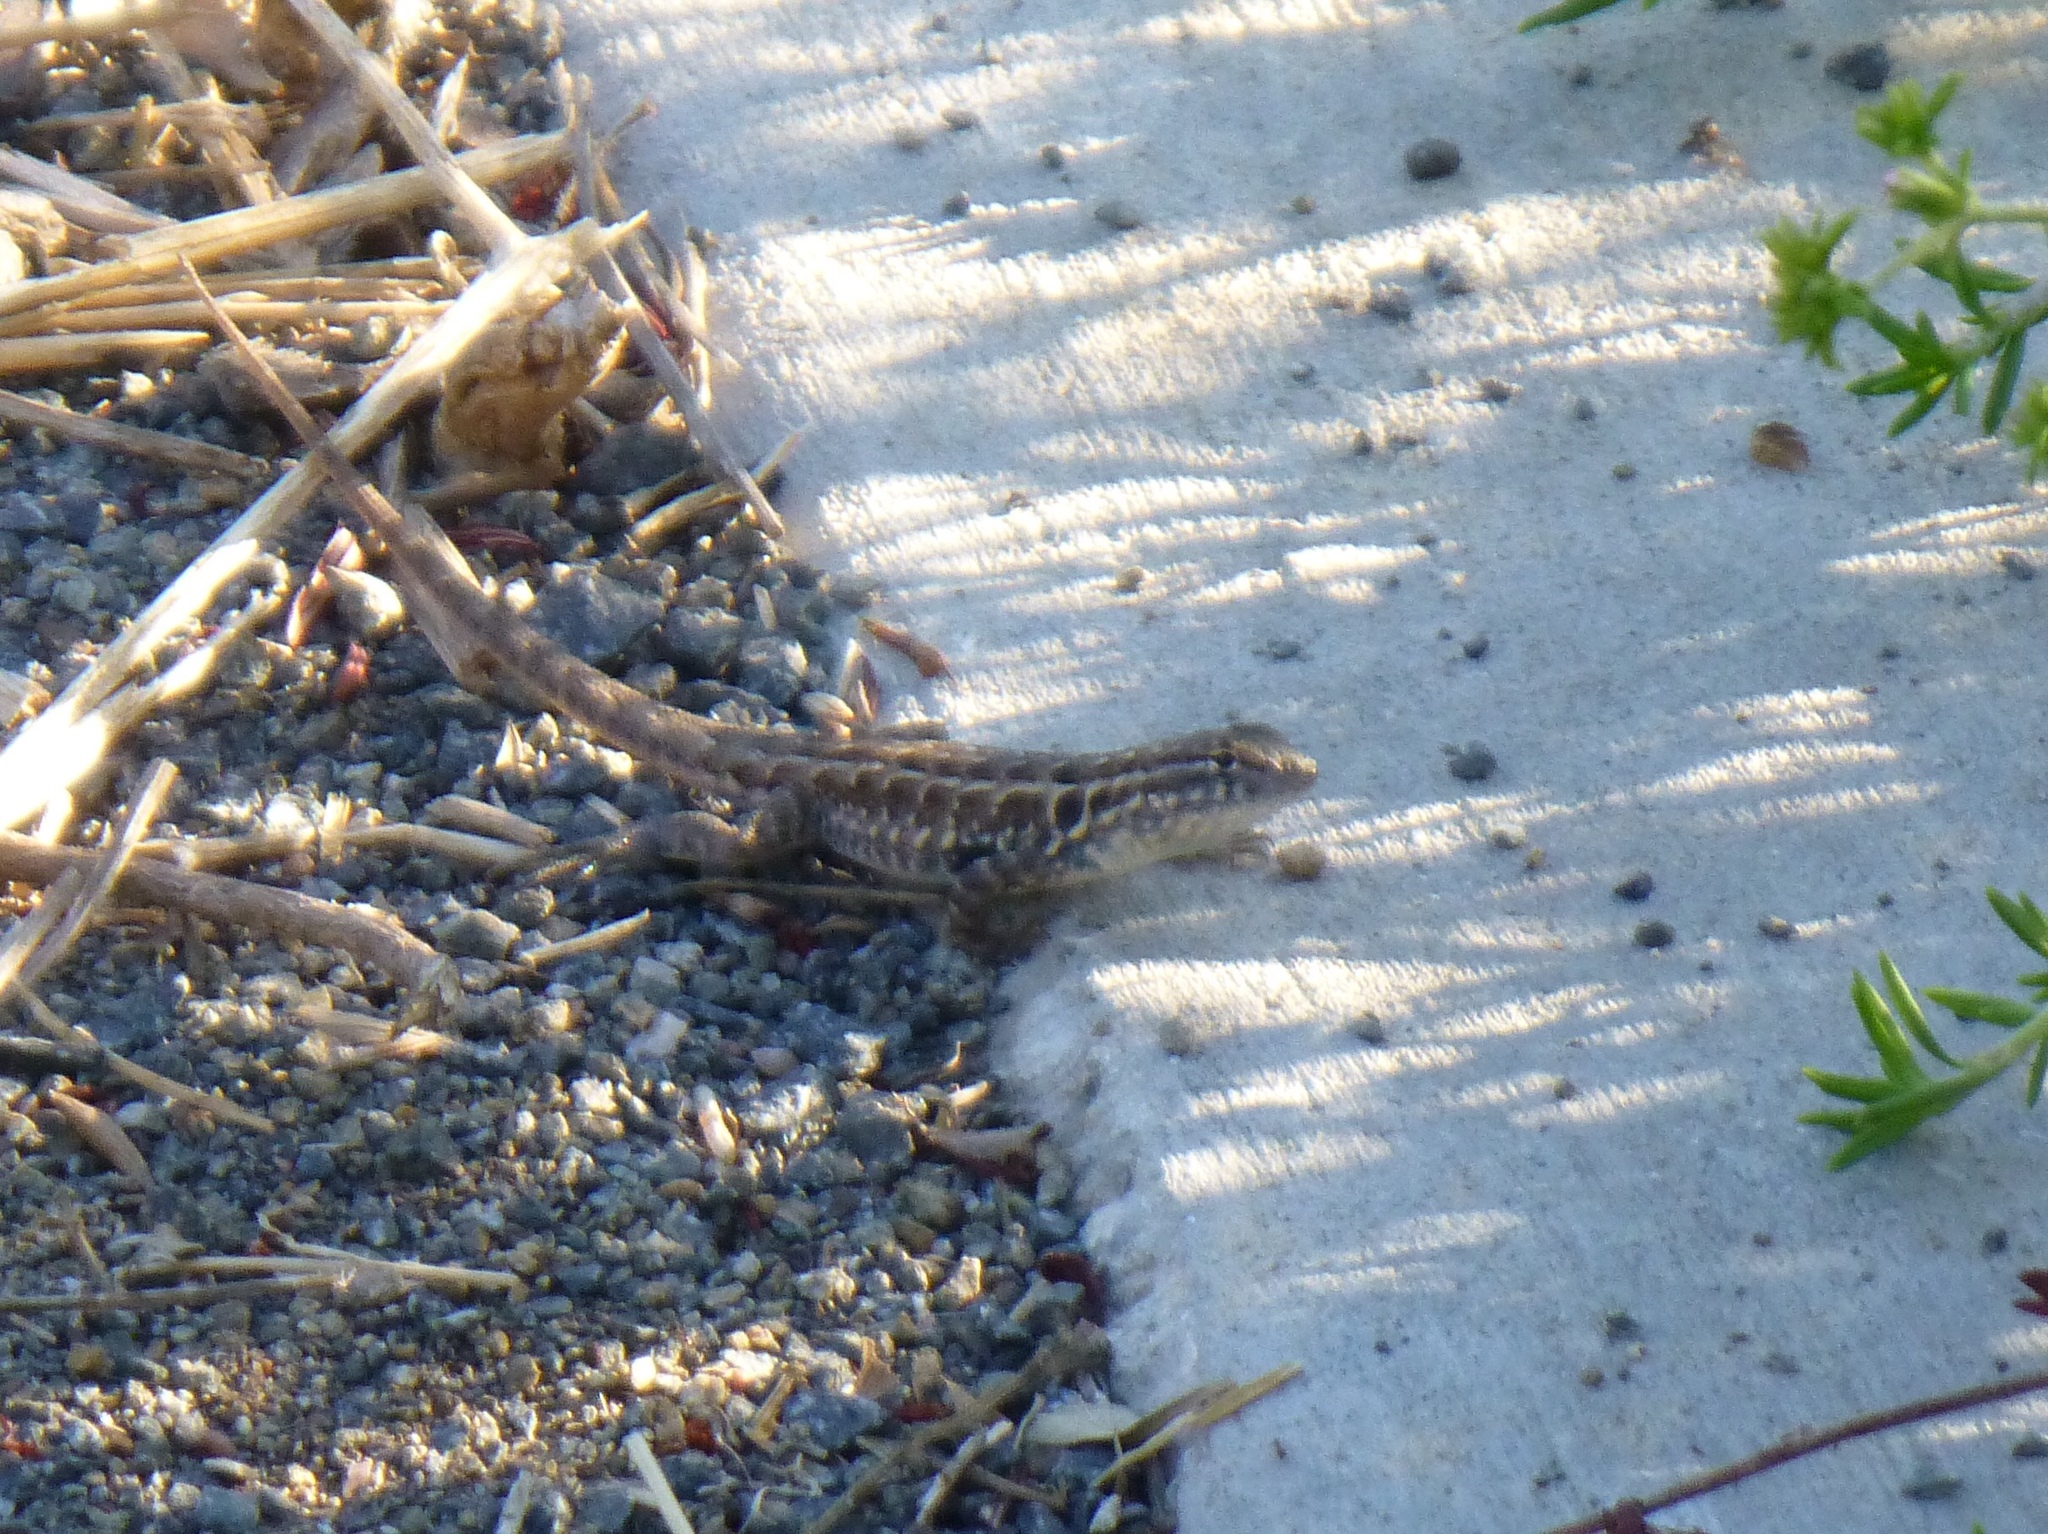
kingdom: Animalia
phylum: Chordata
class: Squamata
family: Phrynosomatidae
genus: Uta
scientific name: Uta stansburiana
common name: Side-blotched lizard
